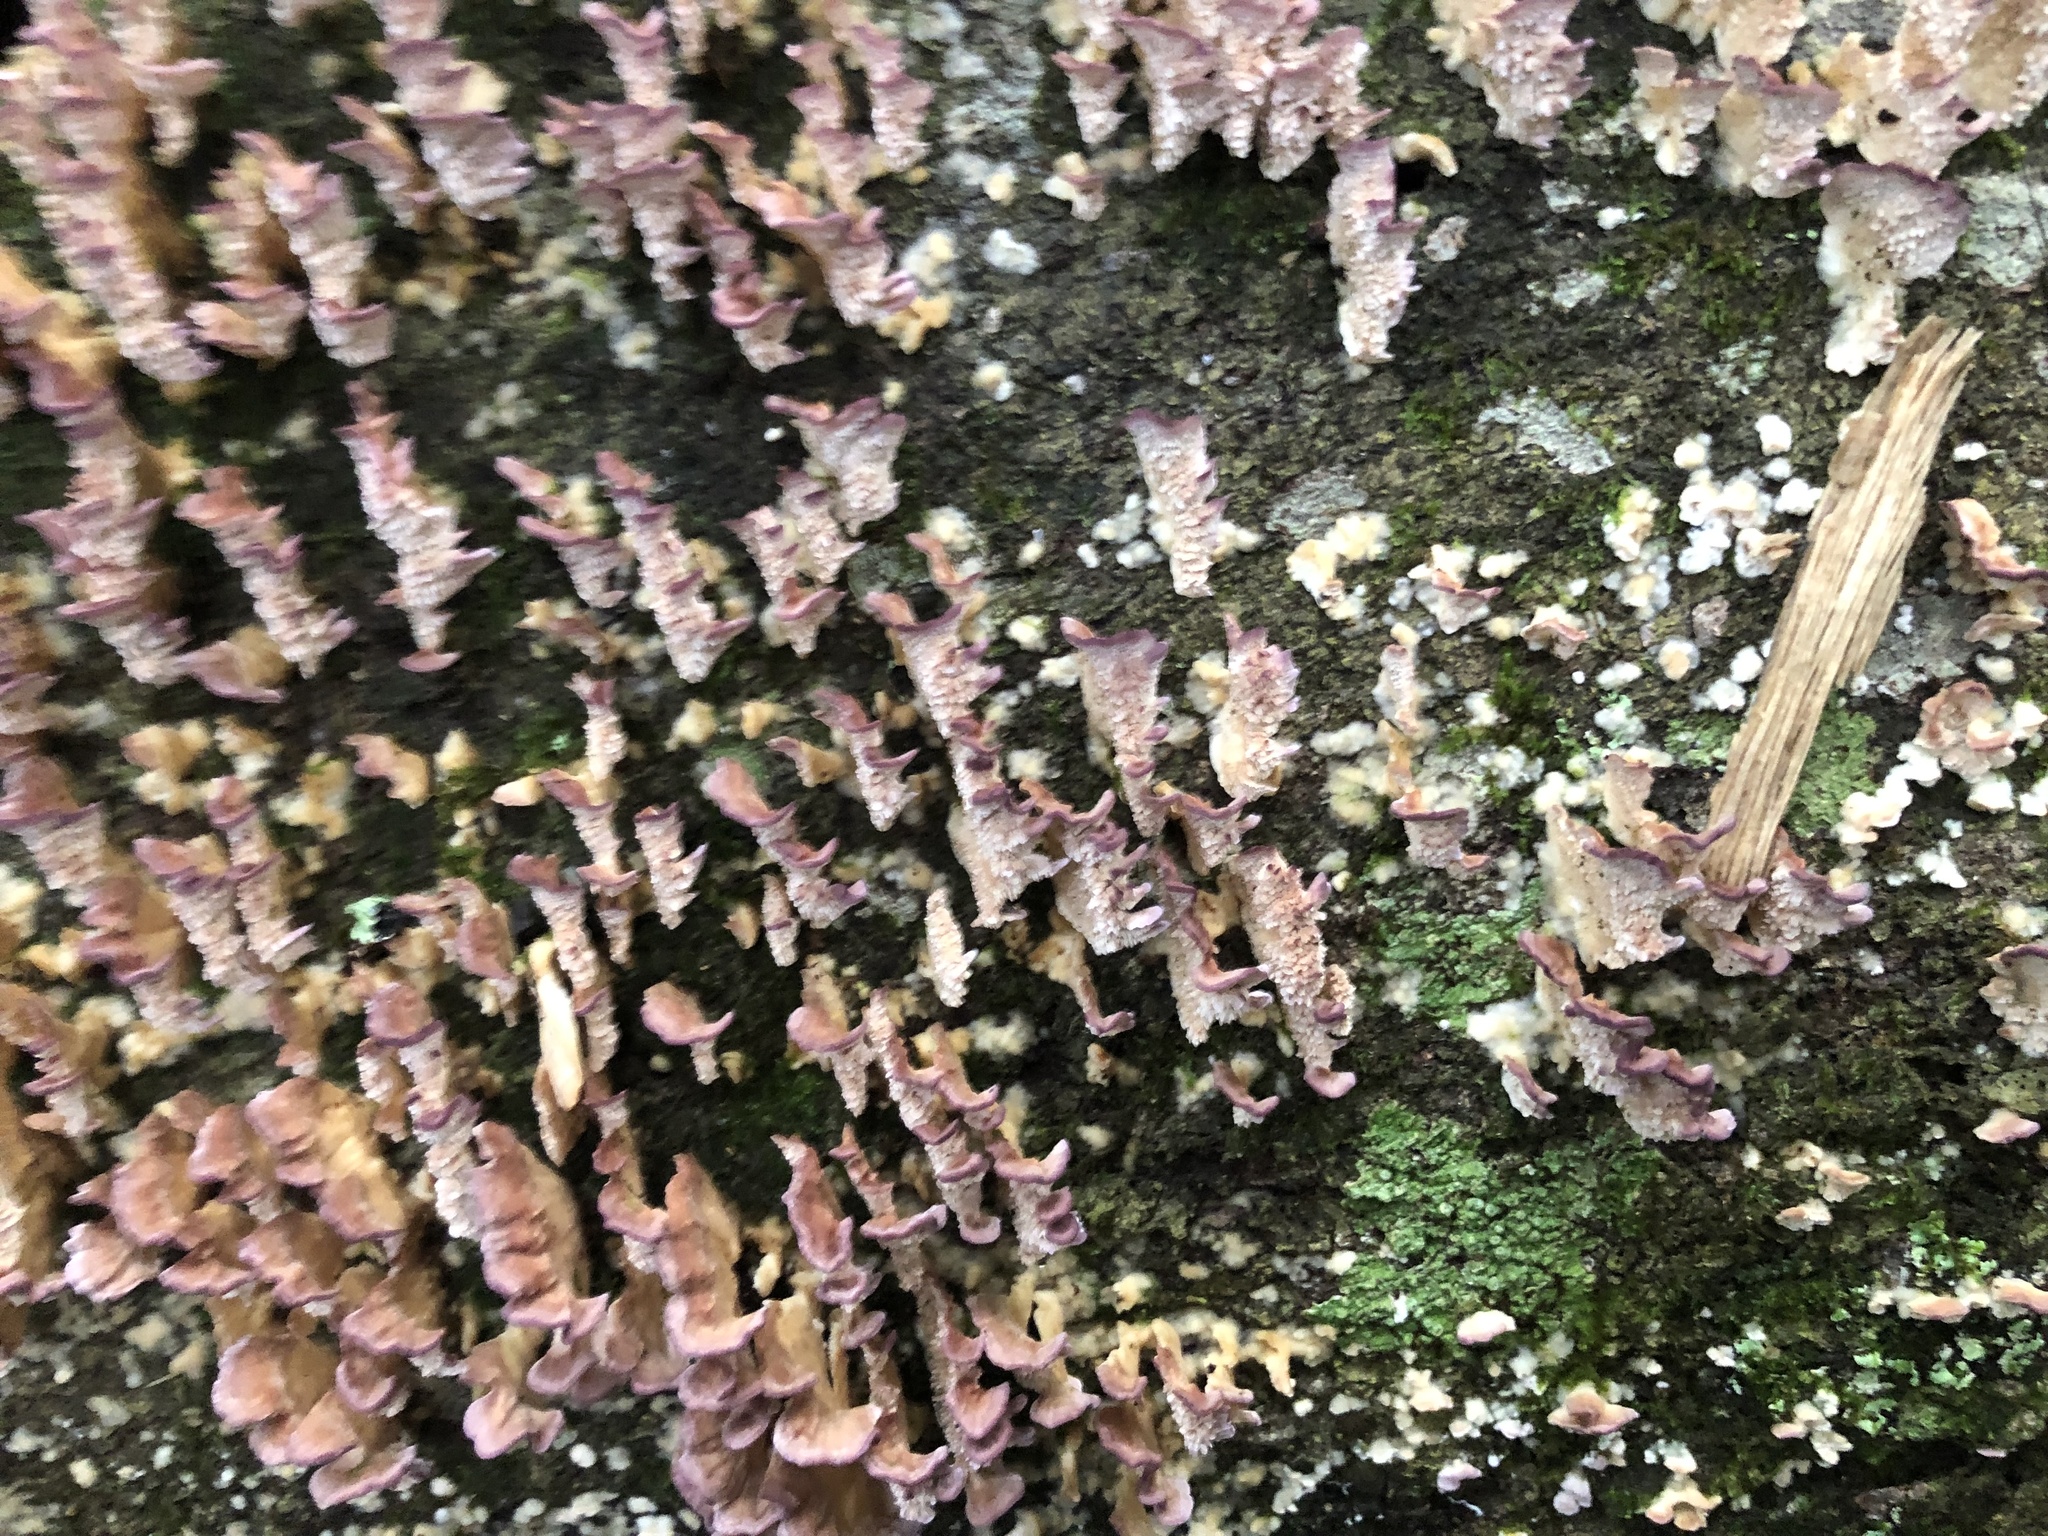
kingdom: Fungi
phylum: Basidiomycota
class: Agaricomycetes
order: Hymenochaetales
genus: Trichaptum
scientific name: Trichaptum biforme
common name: Violet-toothed polypore
